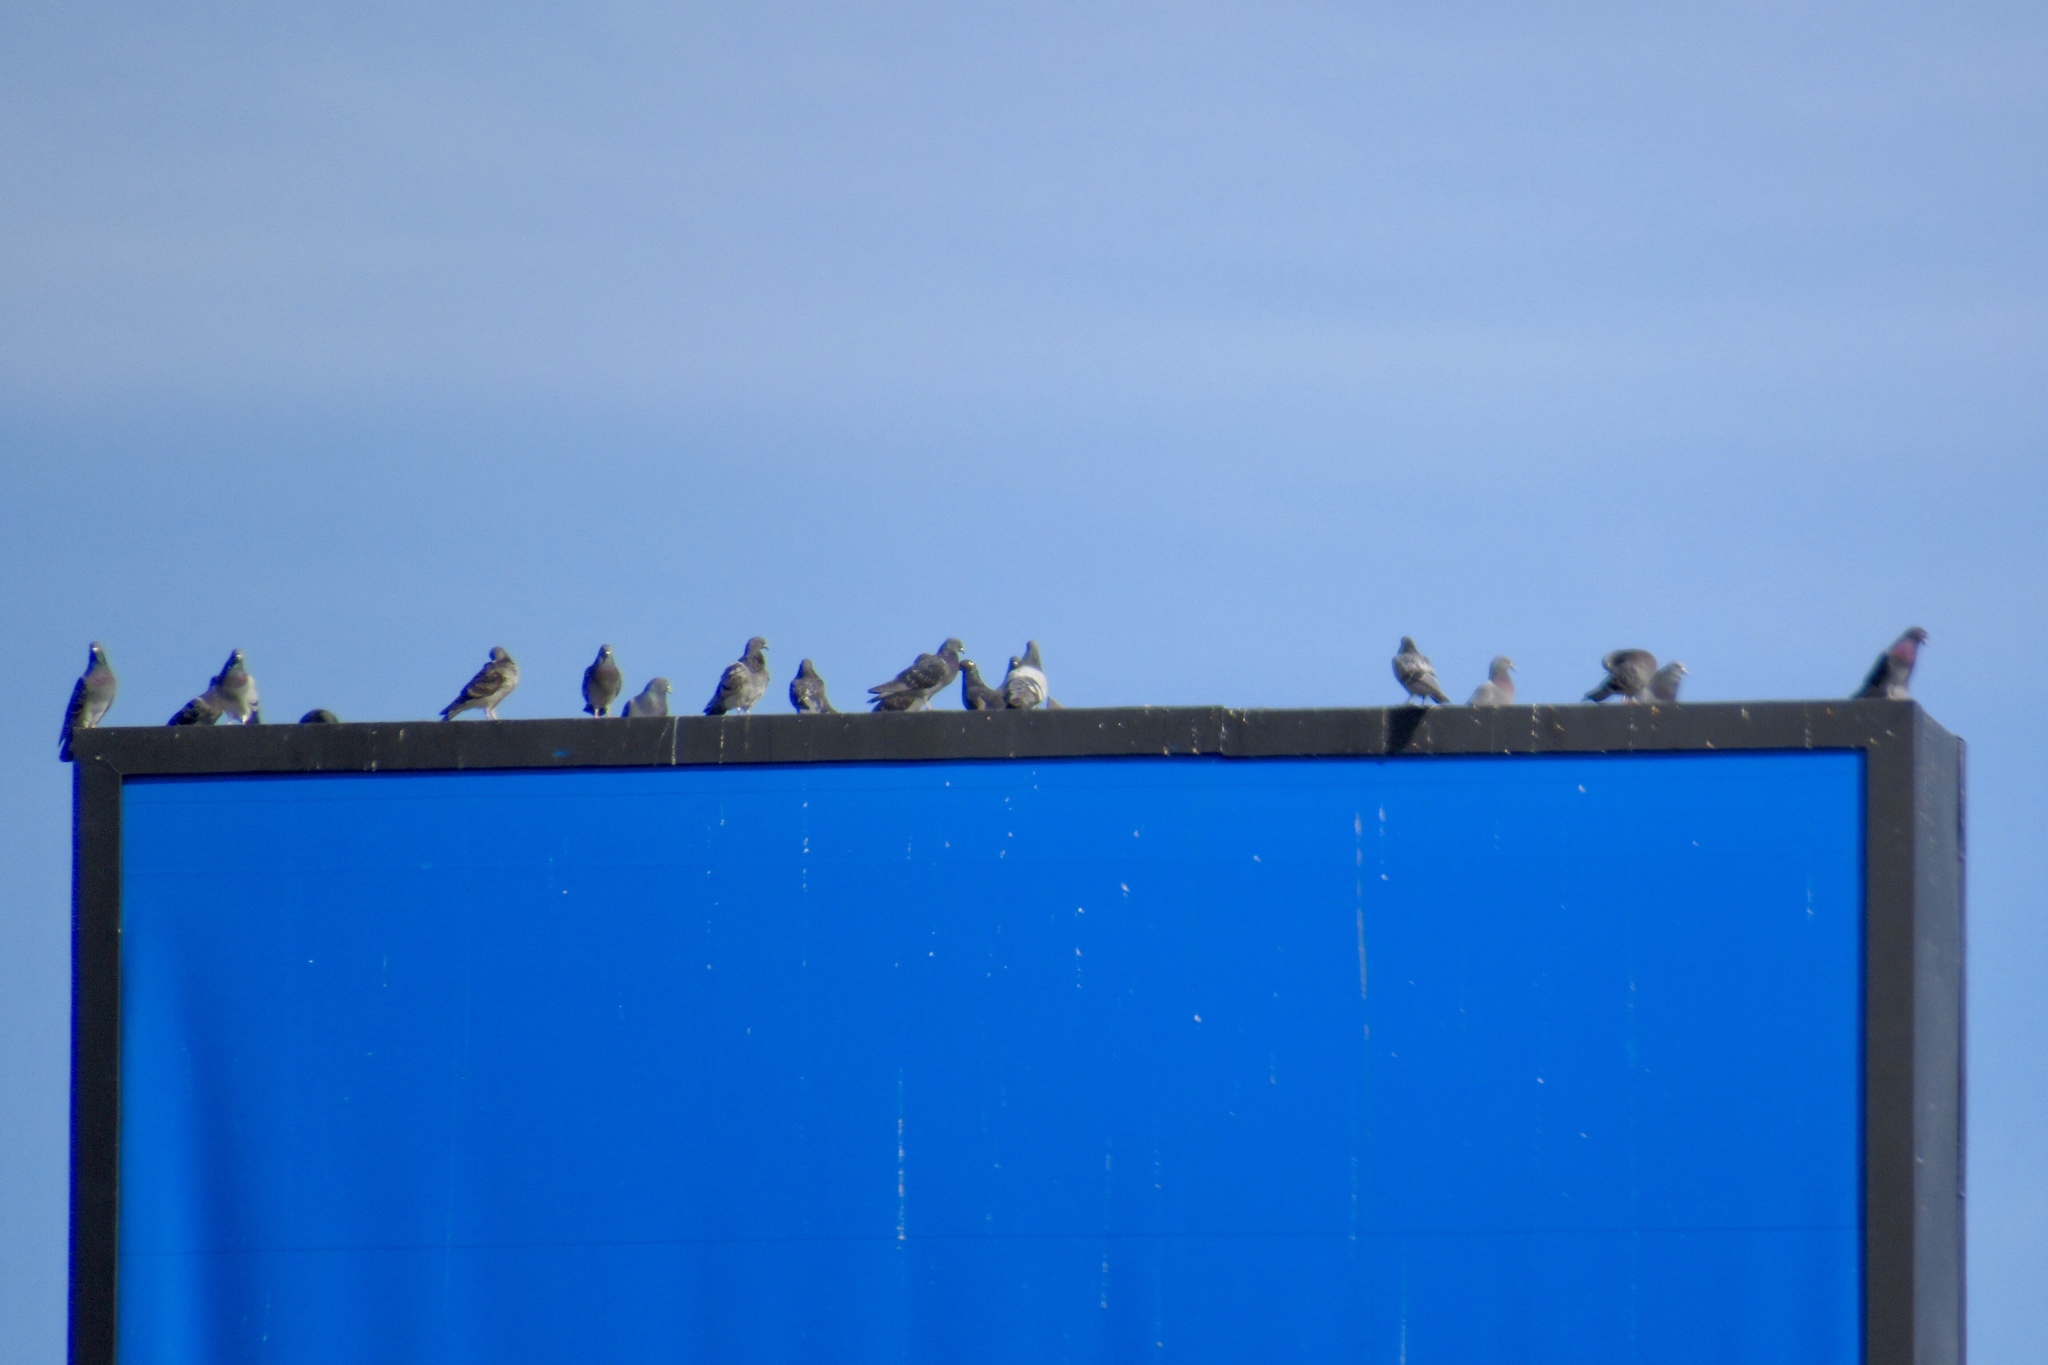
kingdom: Animalia
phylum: Chordata
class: Aves
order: Columbiformes
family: Columbidae
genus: Columba
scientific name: Columba livia
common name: Rock pigeon
